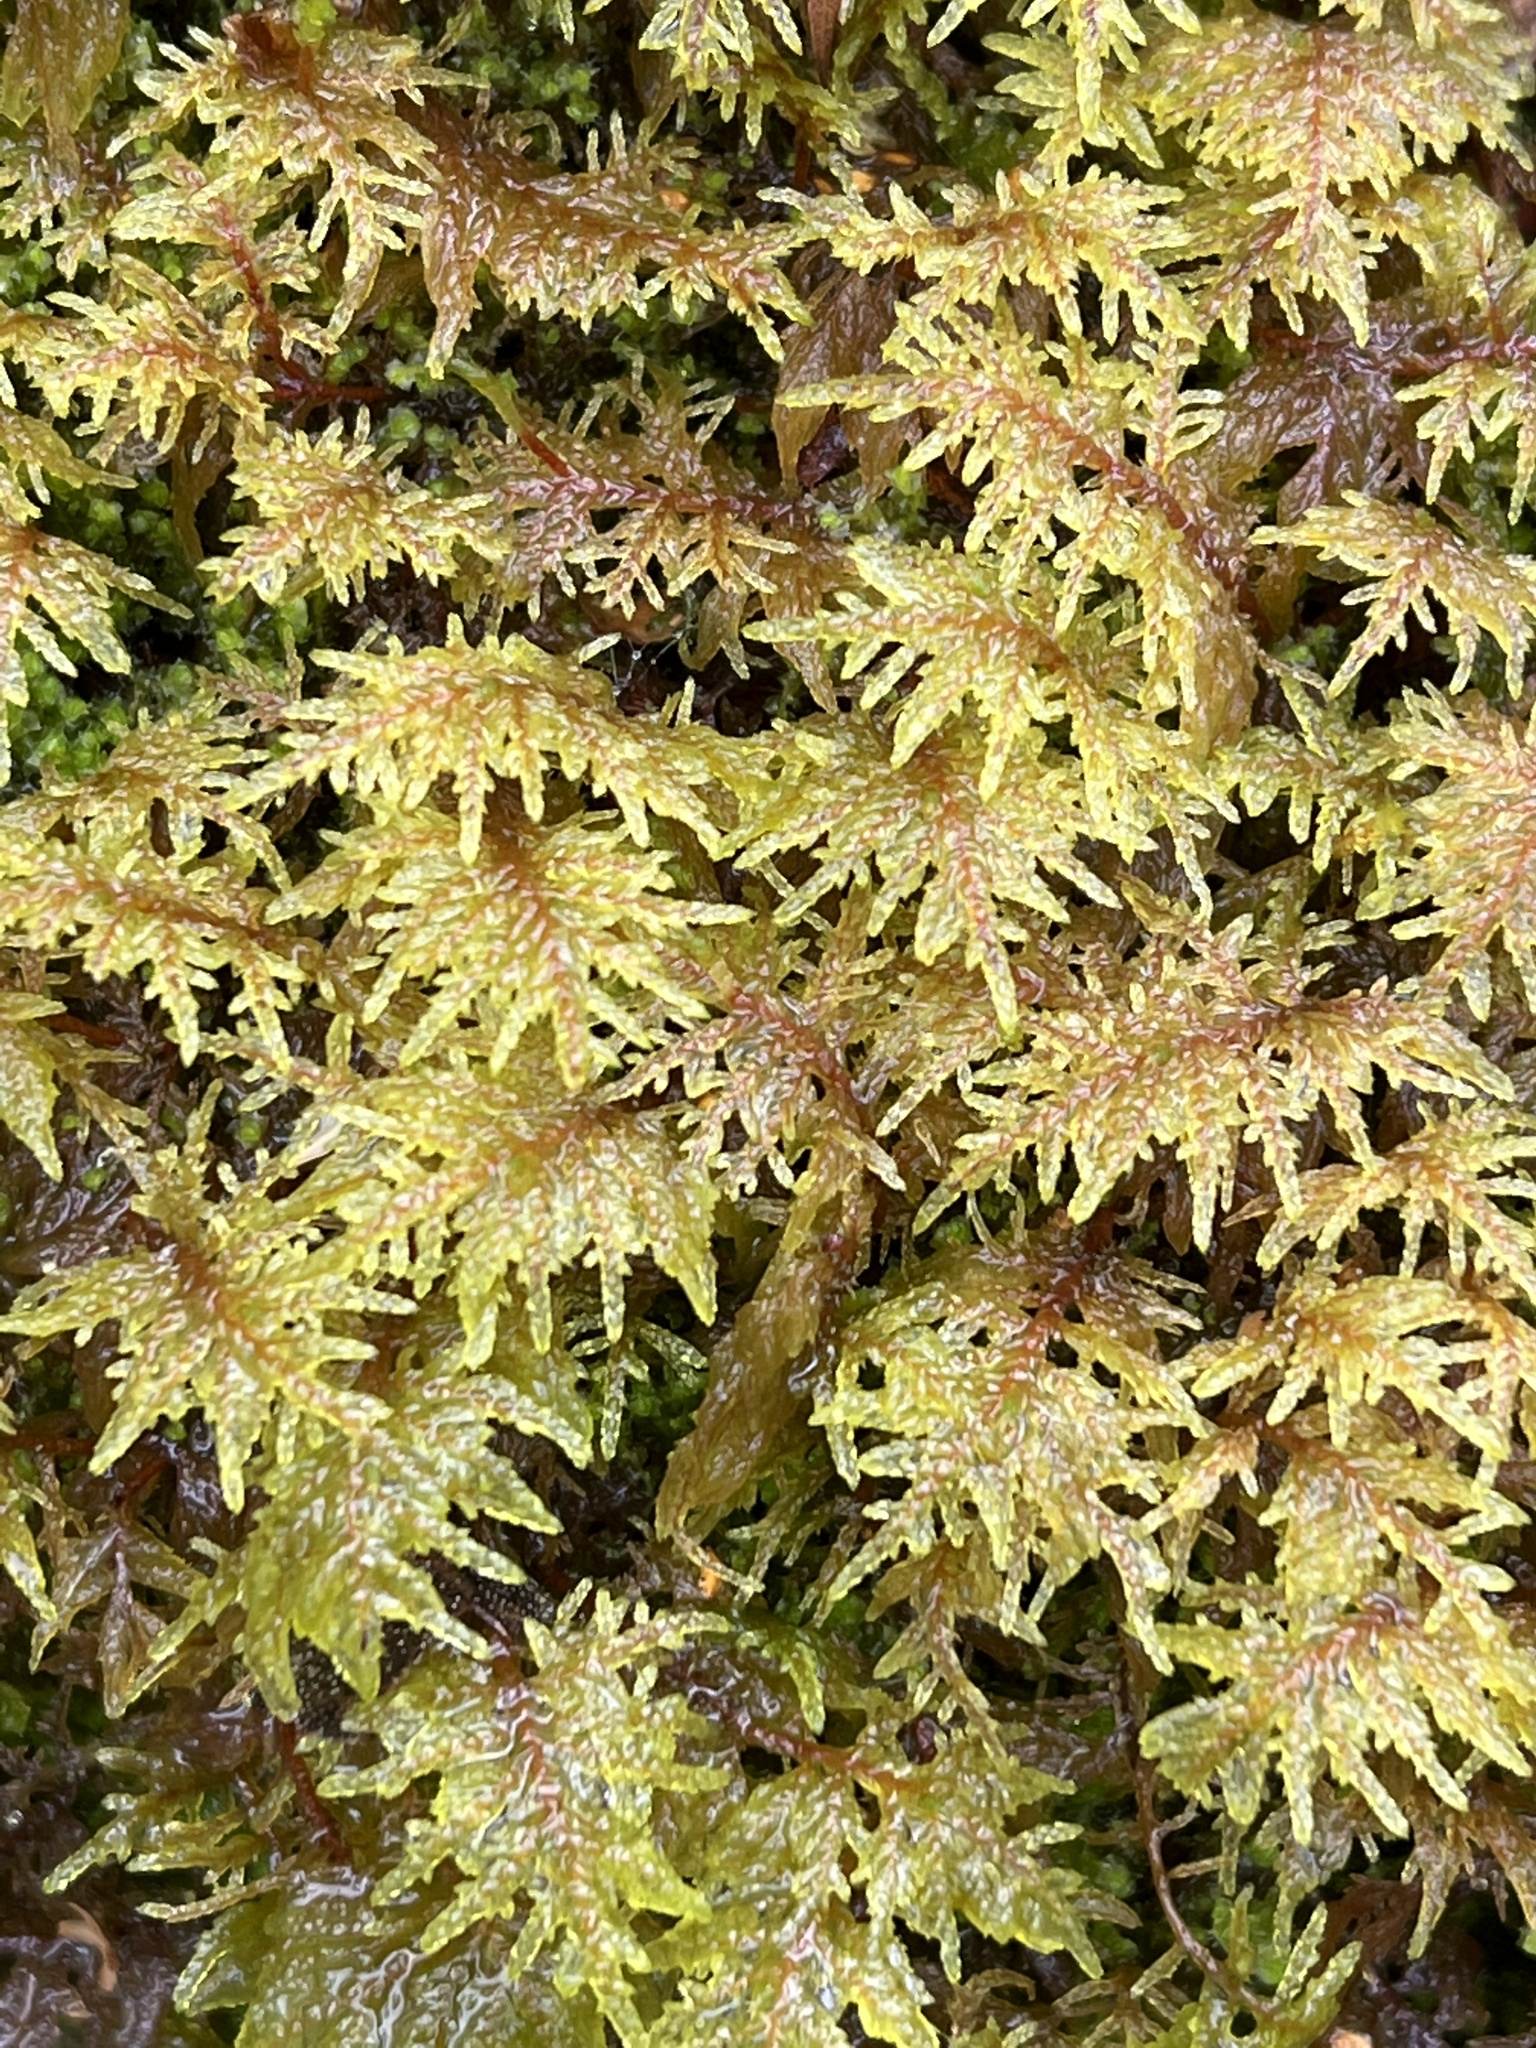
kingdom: Plantae
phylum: Bryophyta
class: Bryopsida
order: Hypnales
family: Hylocomiaceae
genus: Hylocomium
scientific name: Hylocomium splendens
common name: Stairstep moss
